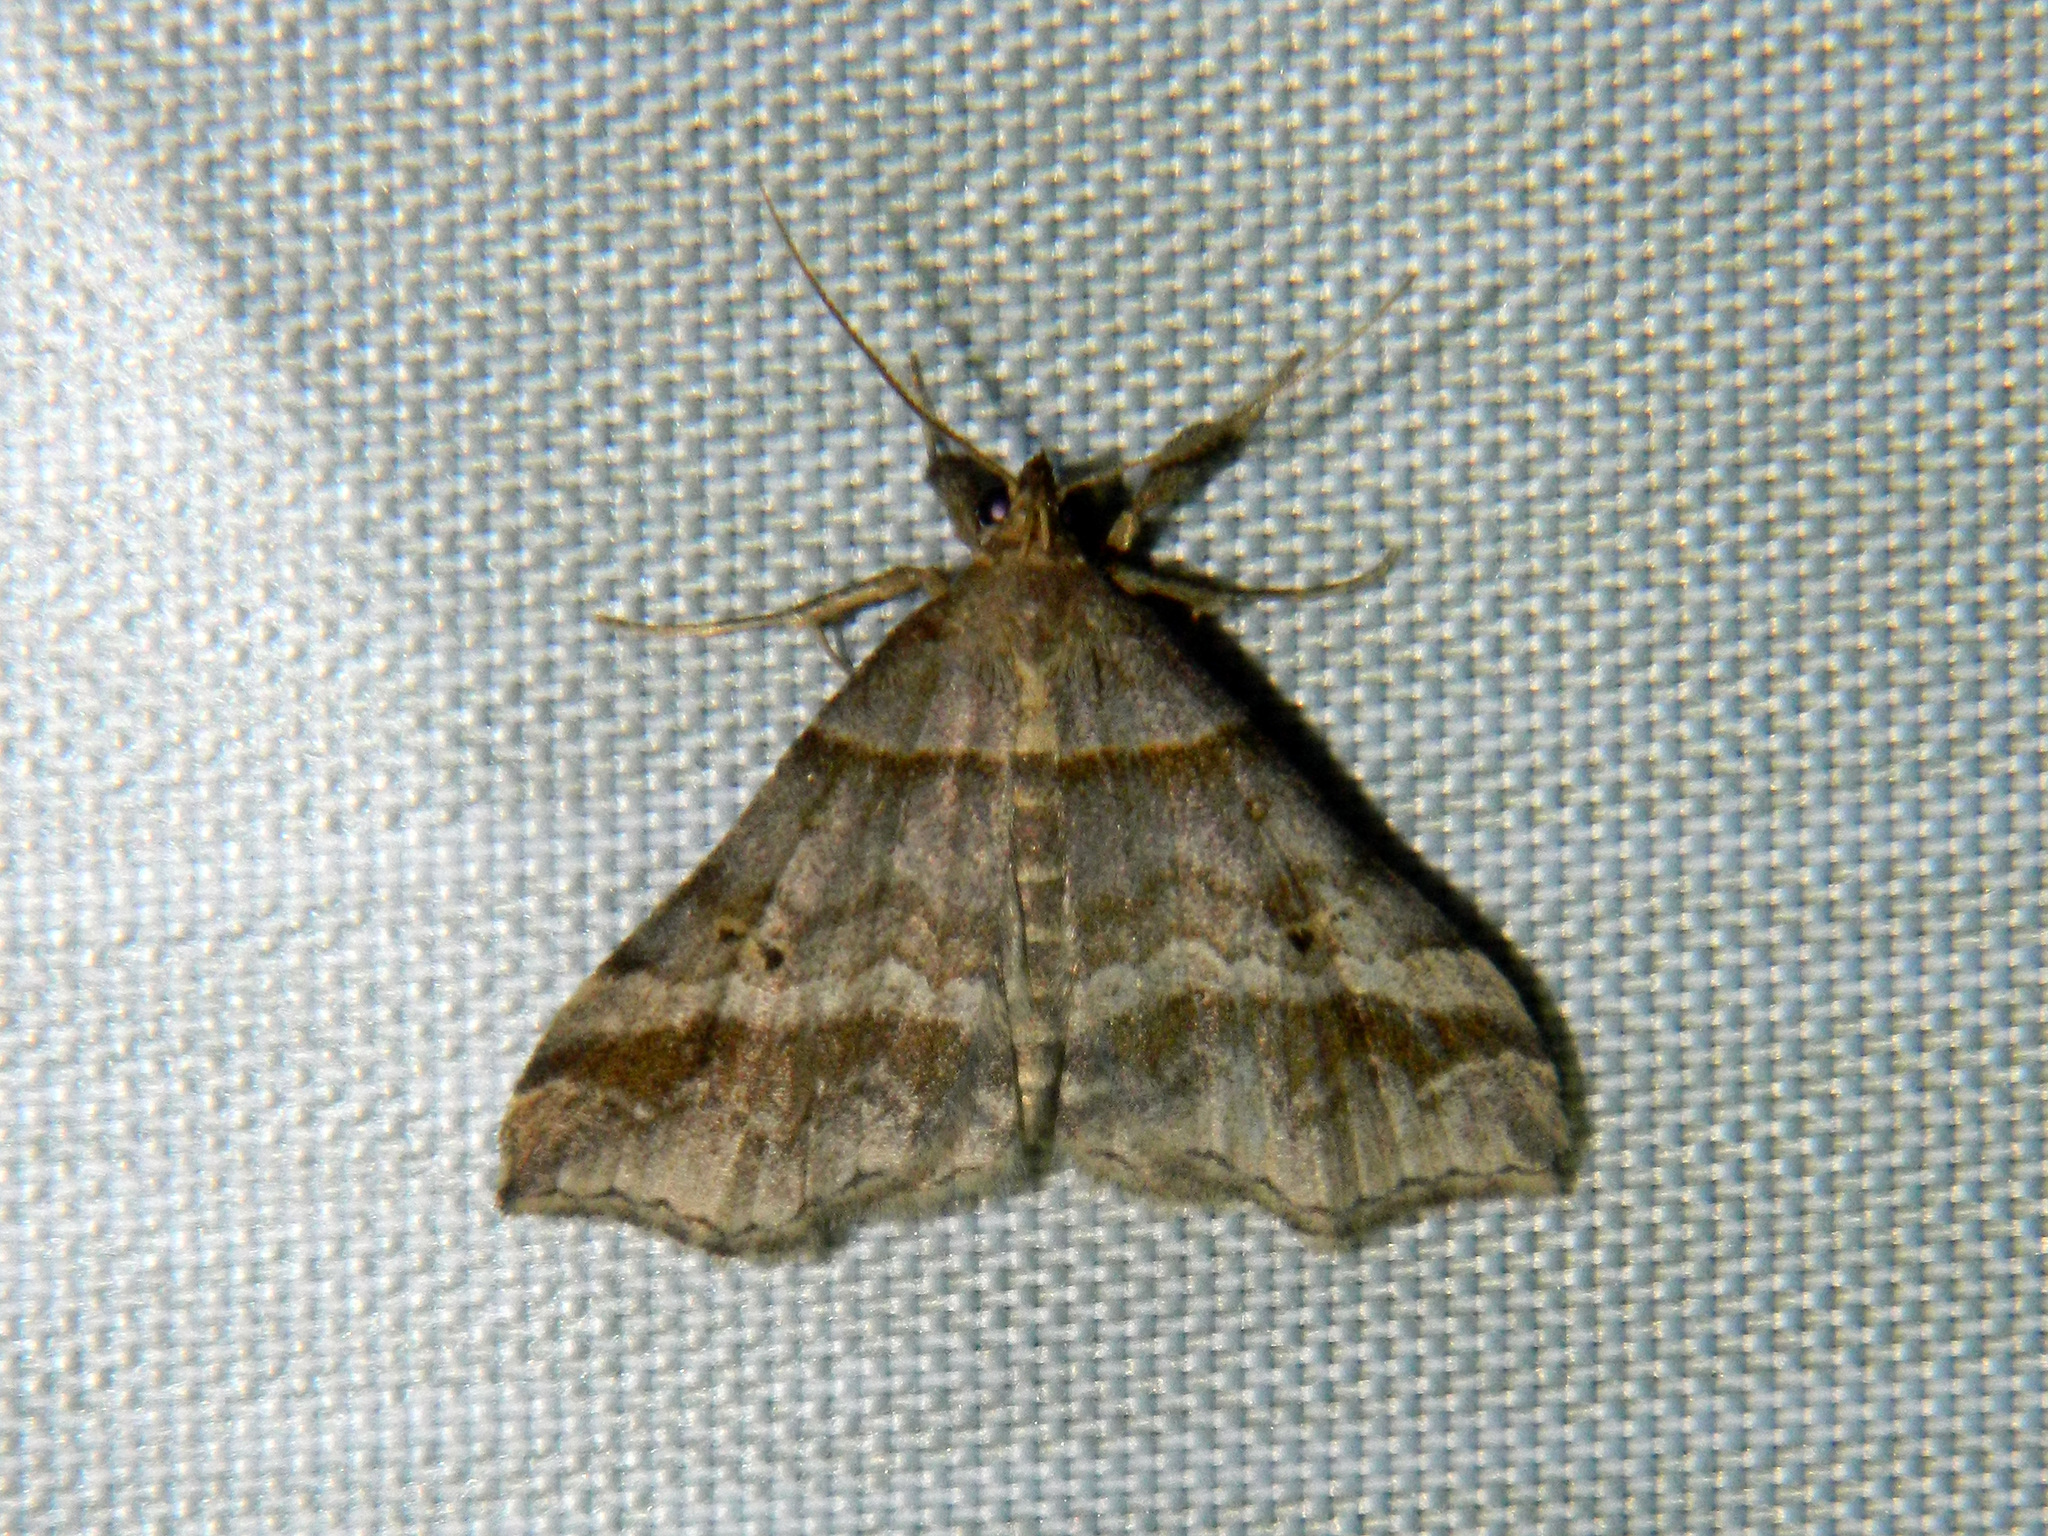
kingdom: Animalia
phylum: Arthropoda
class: Insecta
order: Lepidoptera
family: Erebidae
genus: Phaeolita
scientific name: Phaeolita pyramusalis
